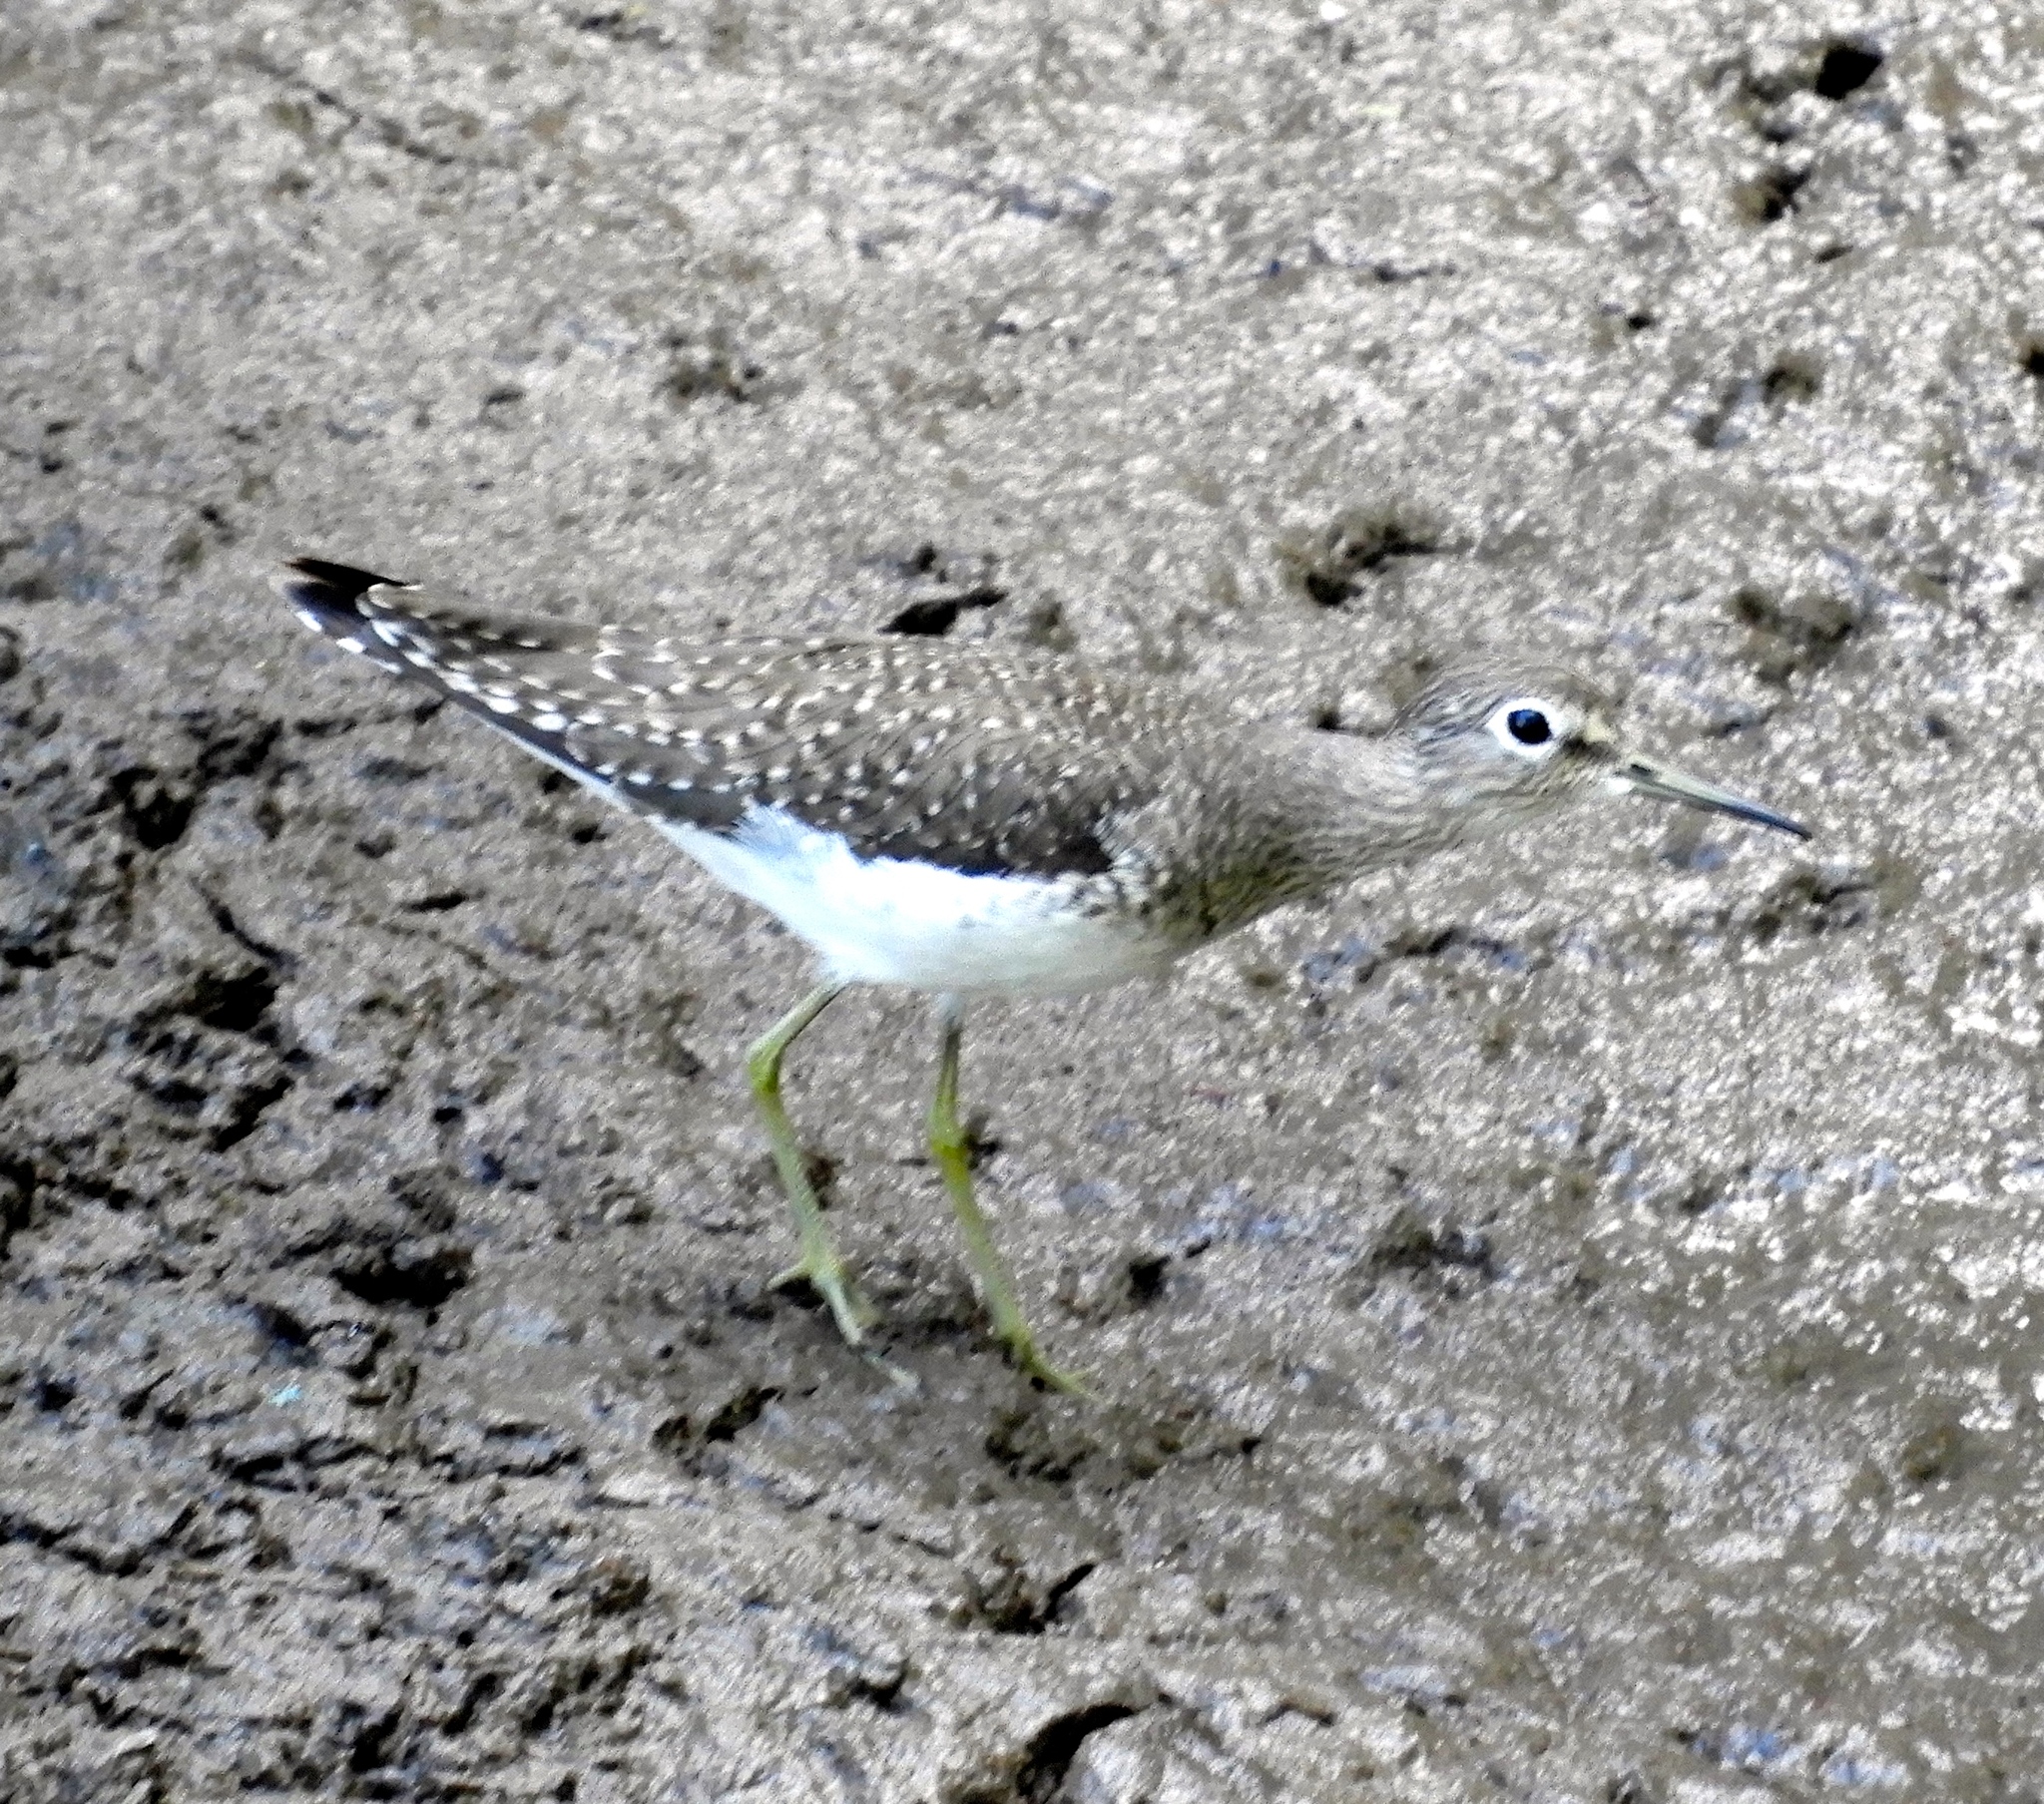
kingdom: Animalia
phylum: Chordata
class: Aves
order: Charadriiformes
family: Scolopacidae
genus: Tringa
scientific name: Tringa solitaria
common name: Solitary sandpiper
